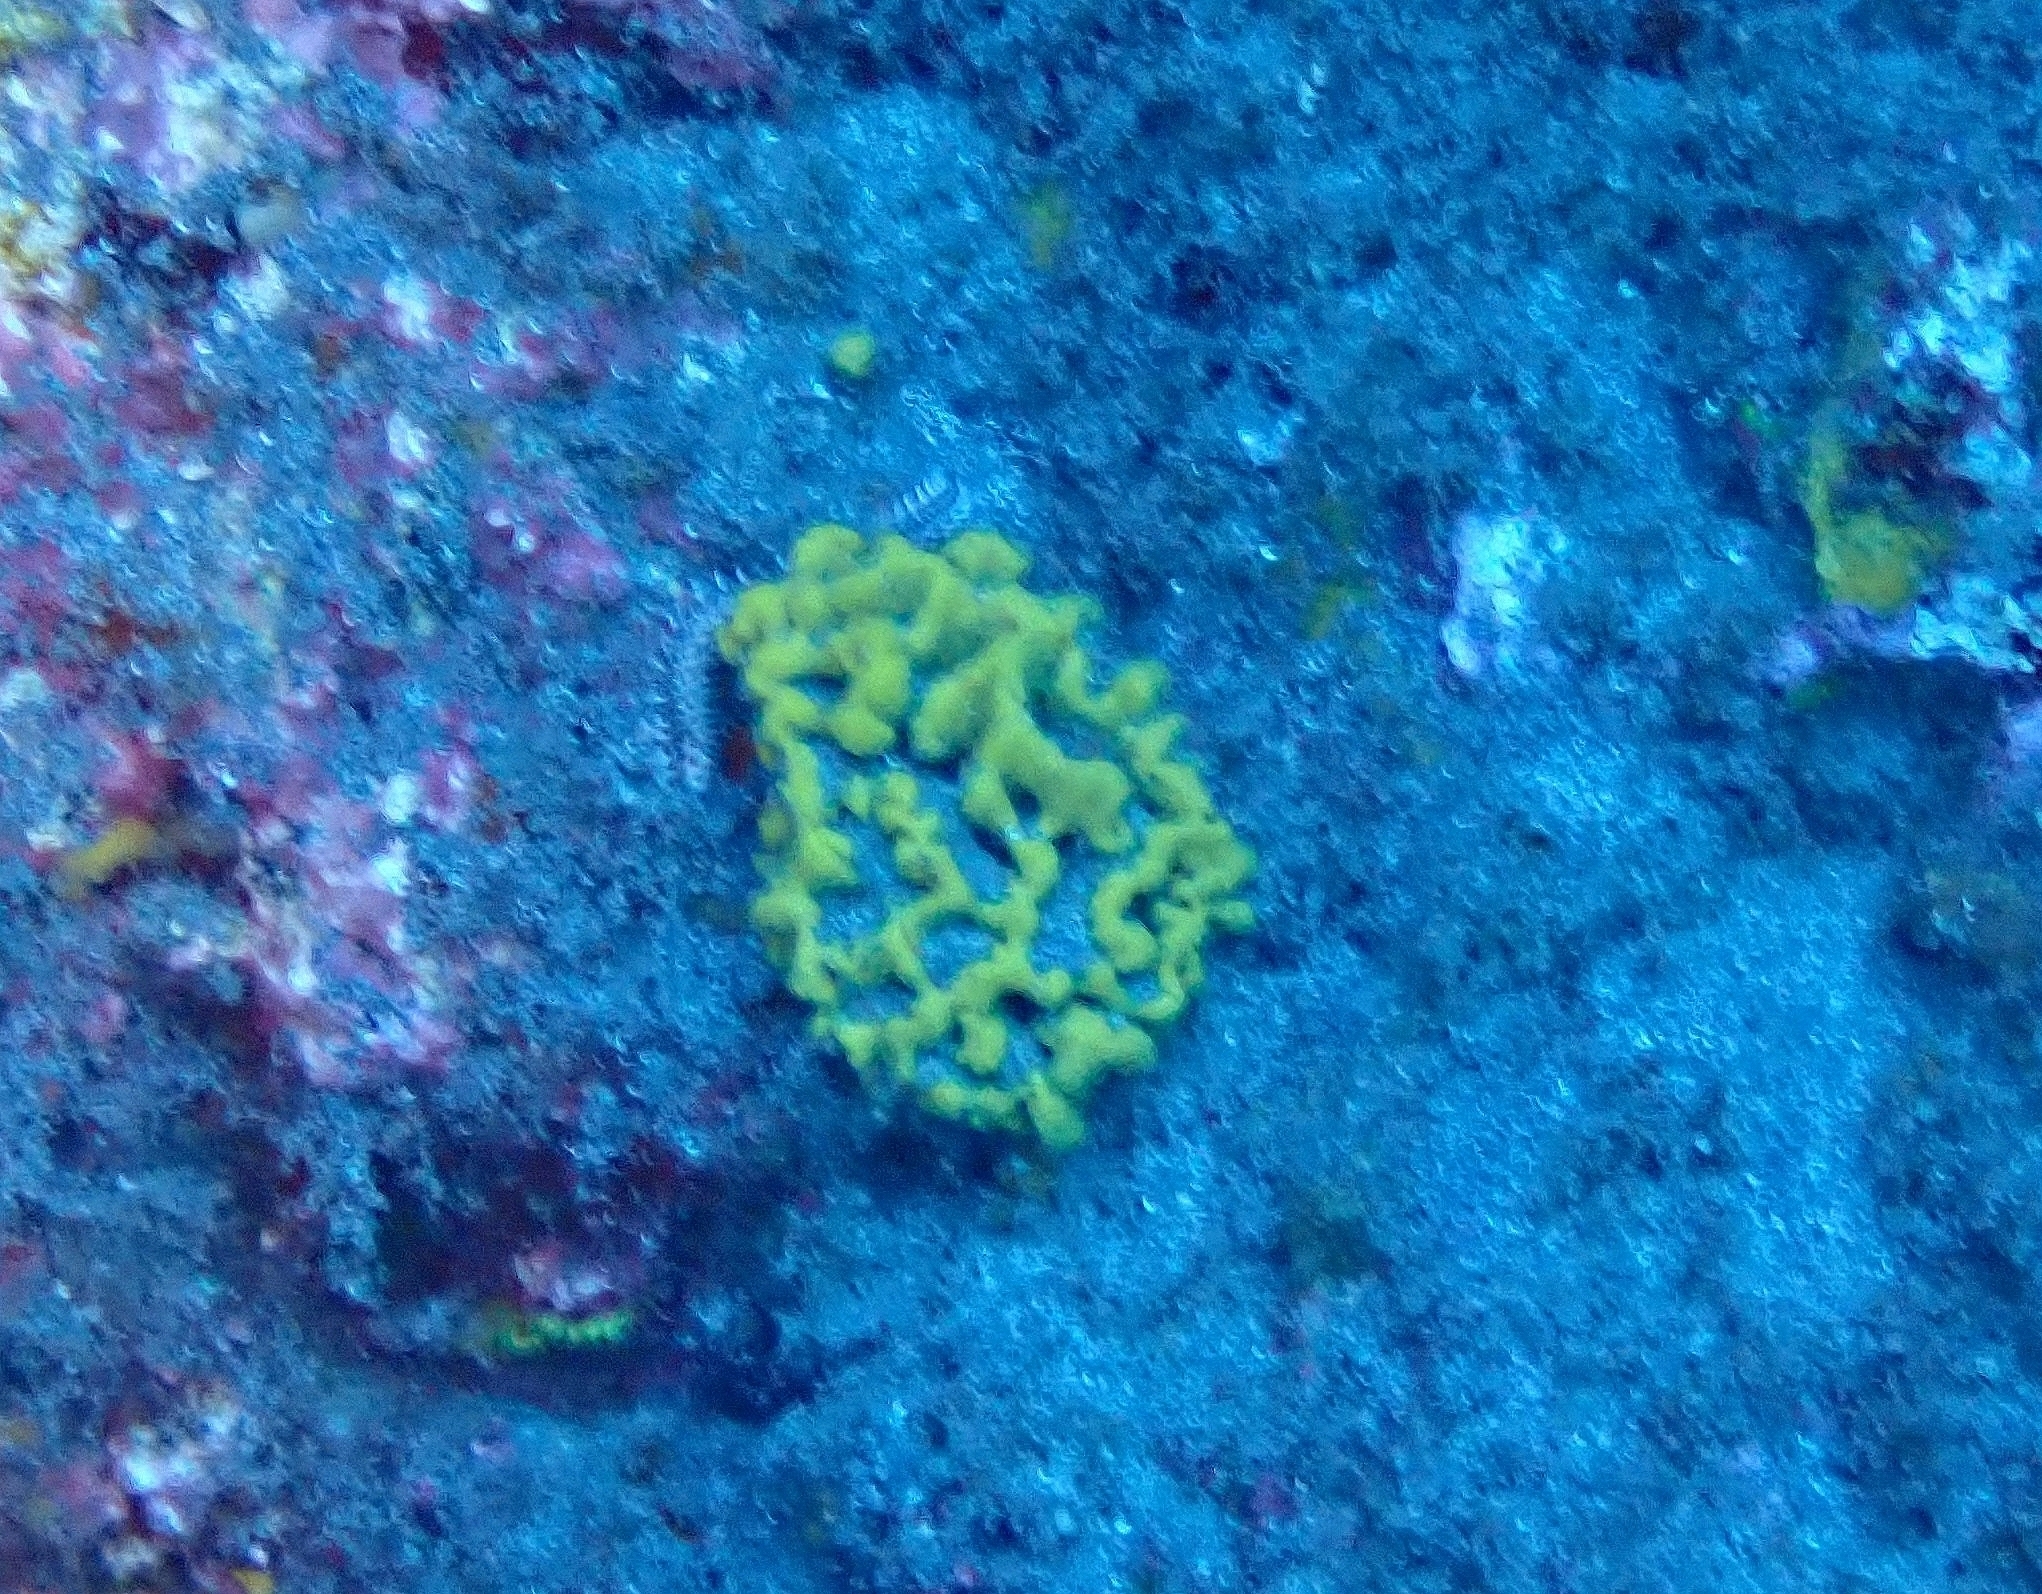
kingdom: Animalia
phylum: Porifera
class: Demospongiae
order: Axinellida
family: Axinellidae
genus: Axinella
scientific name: Axinella damicornis
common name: Crumpled duster sponge
